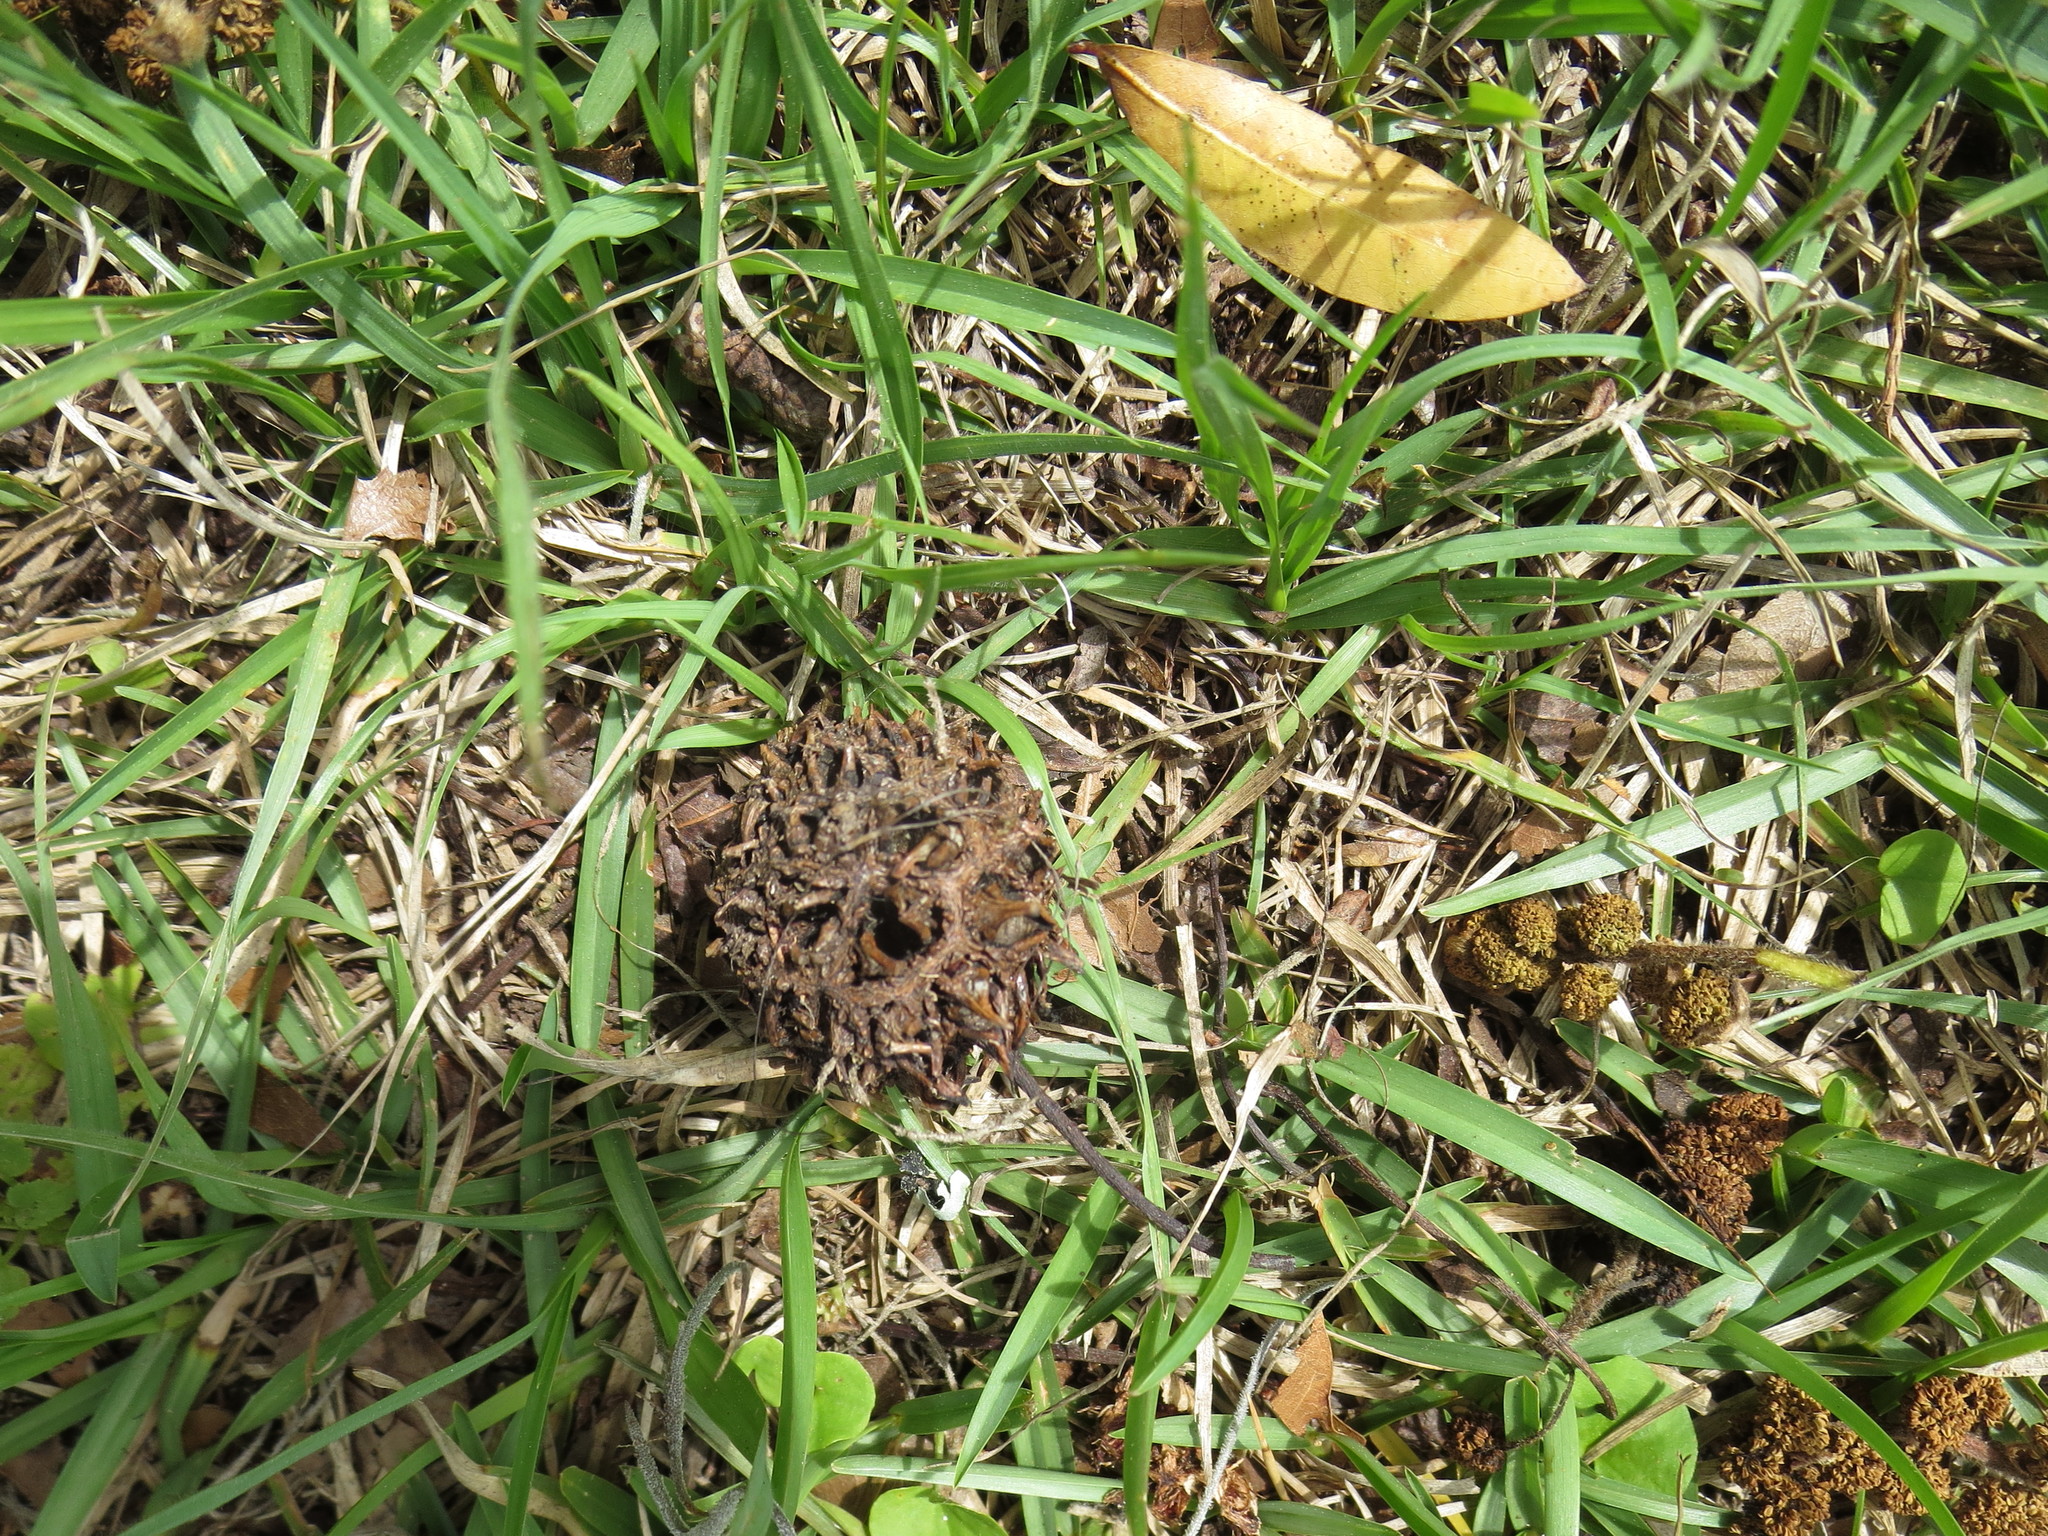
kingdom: Plantae
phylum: Tracheophyta
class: Magnoliopsida
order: Saxifragales
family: Altingiaceae
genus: Liquidambar
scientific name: Liquidambar styraciflua
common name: Sweet gum
